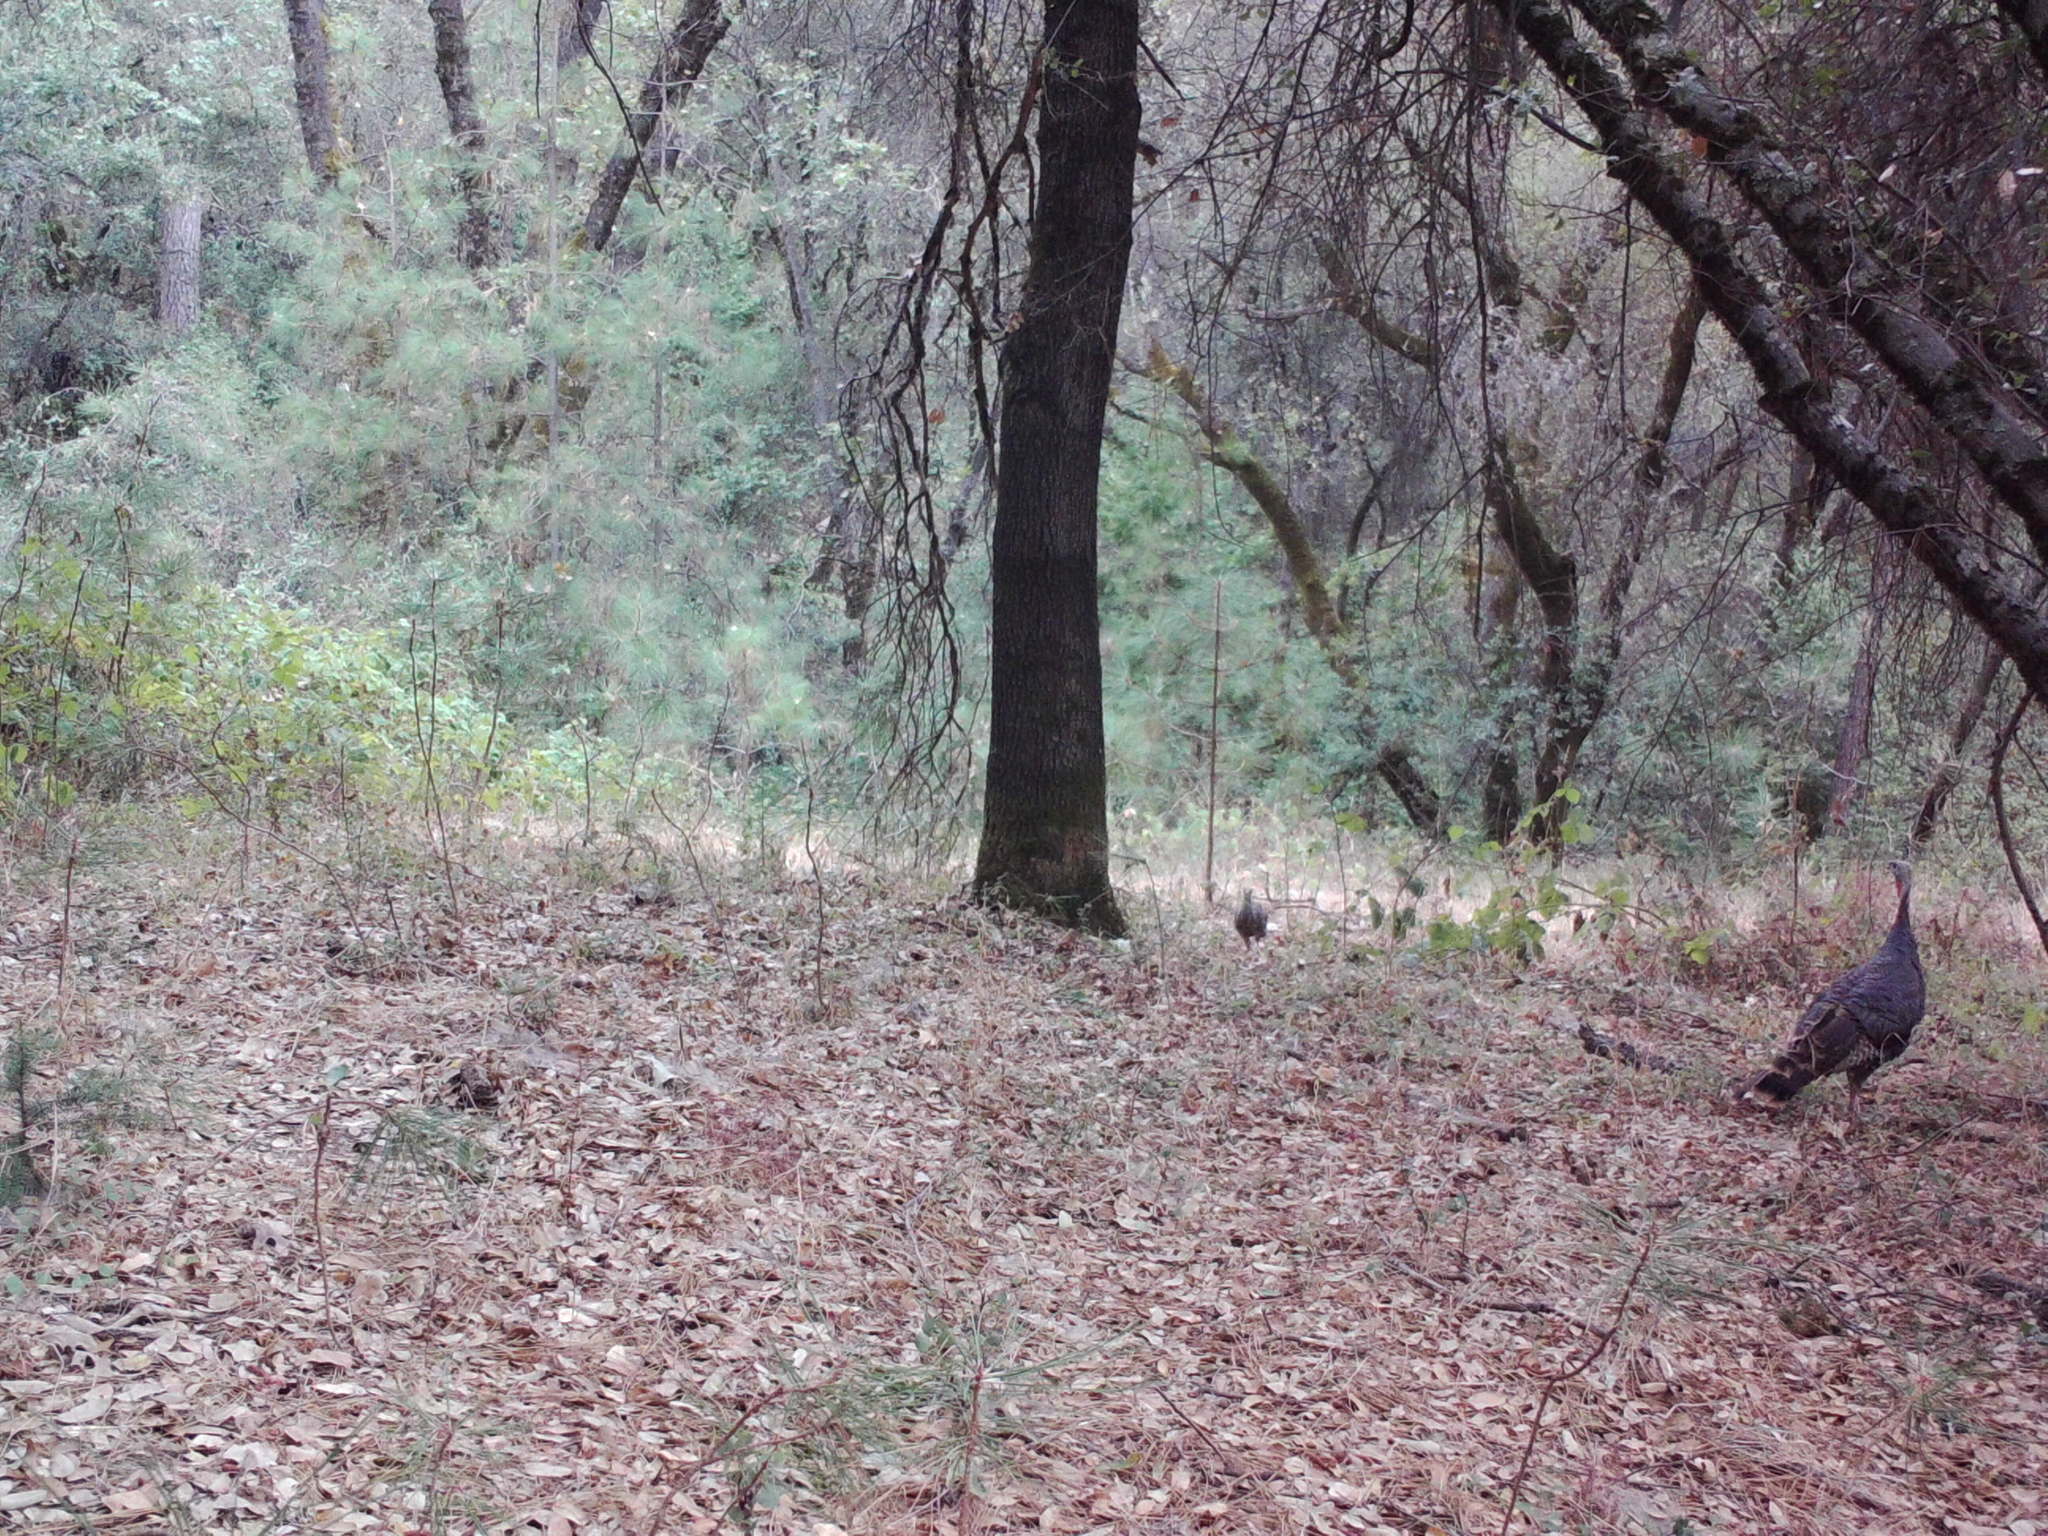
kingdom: Animalia
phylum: Chordata
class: Aves
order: Galliformes
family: Phasianidae
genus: Meleagris
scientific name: Meleagris gallopavo
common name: Wild turkey
